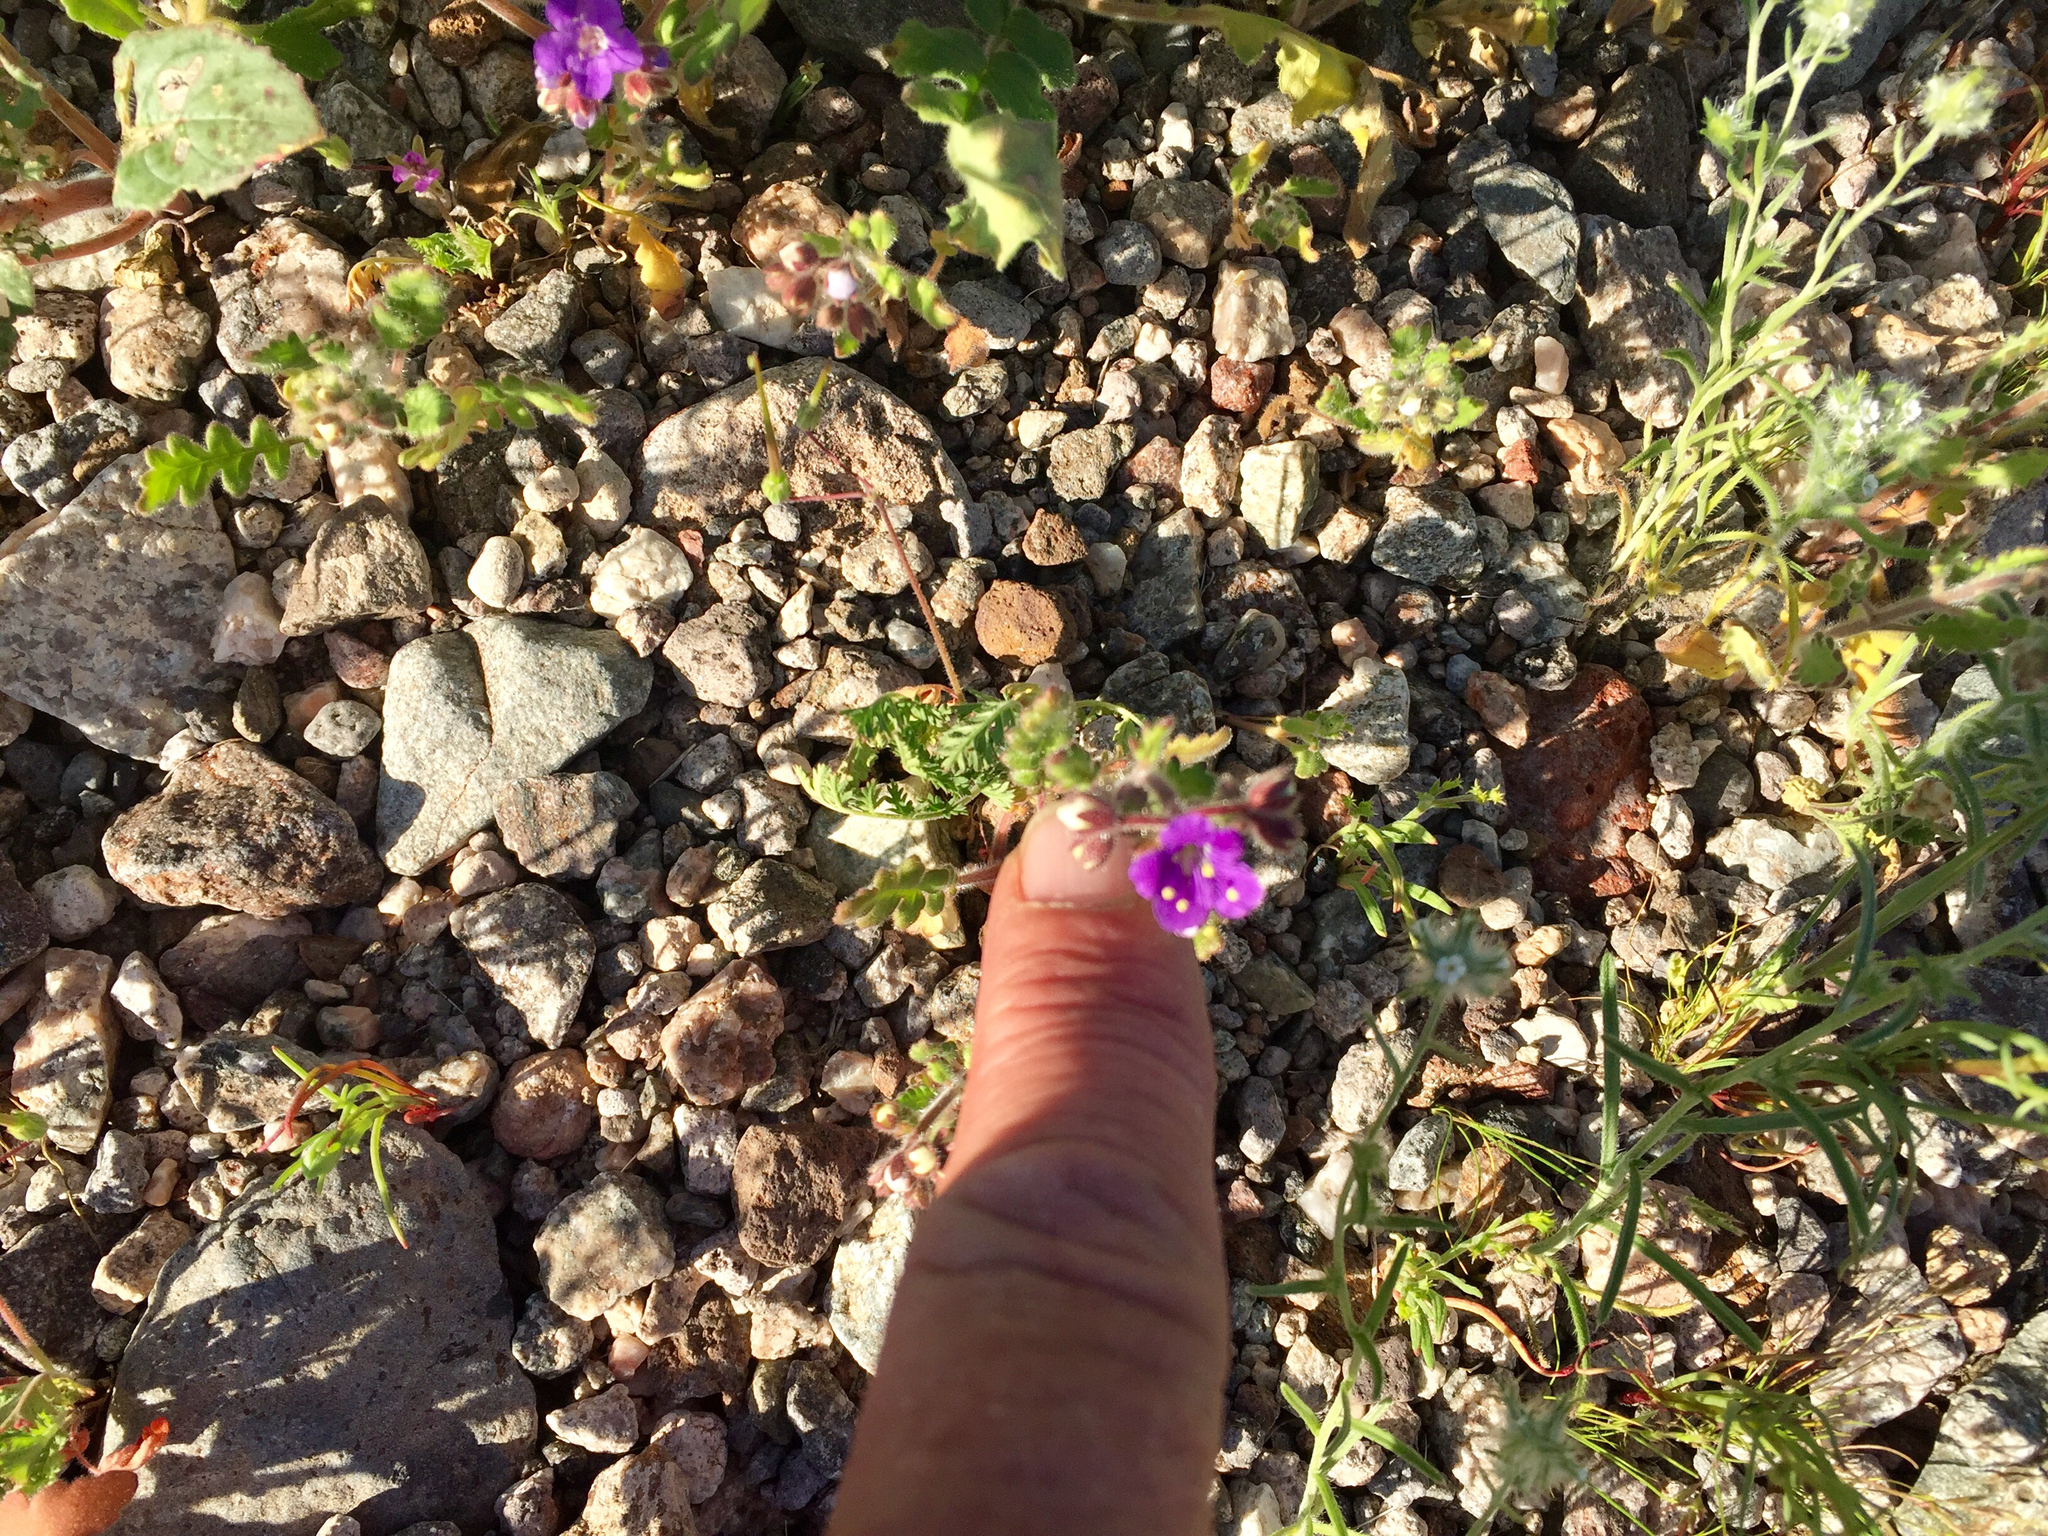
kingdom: Plantae
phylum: Tracheophyta
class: Magnoliopsida
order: Boraginales
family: Hydrophyllaceae
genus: Phacelia
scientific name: Phacelia crenulata
